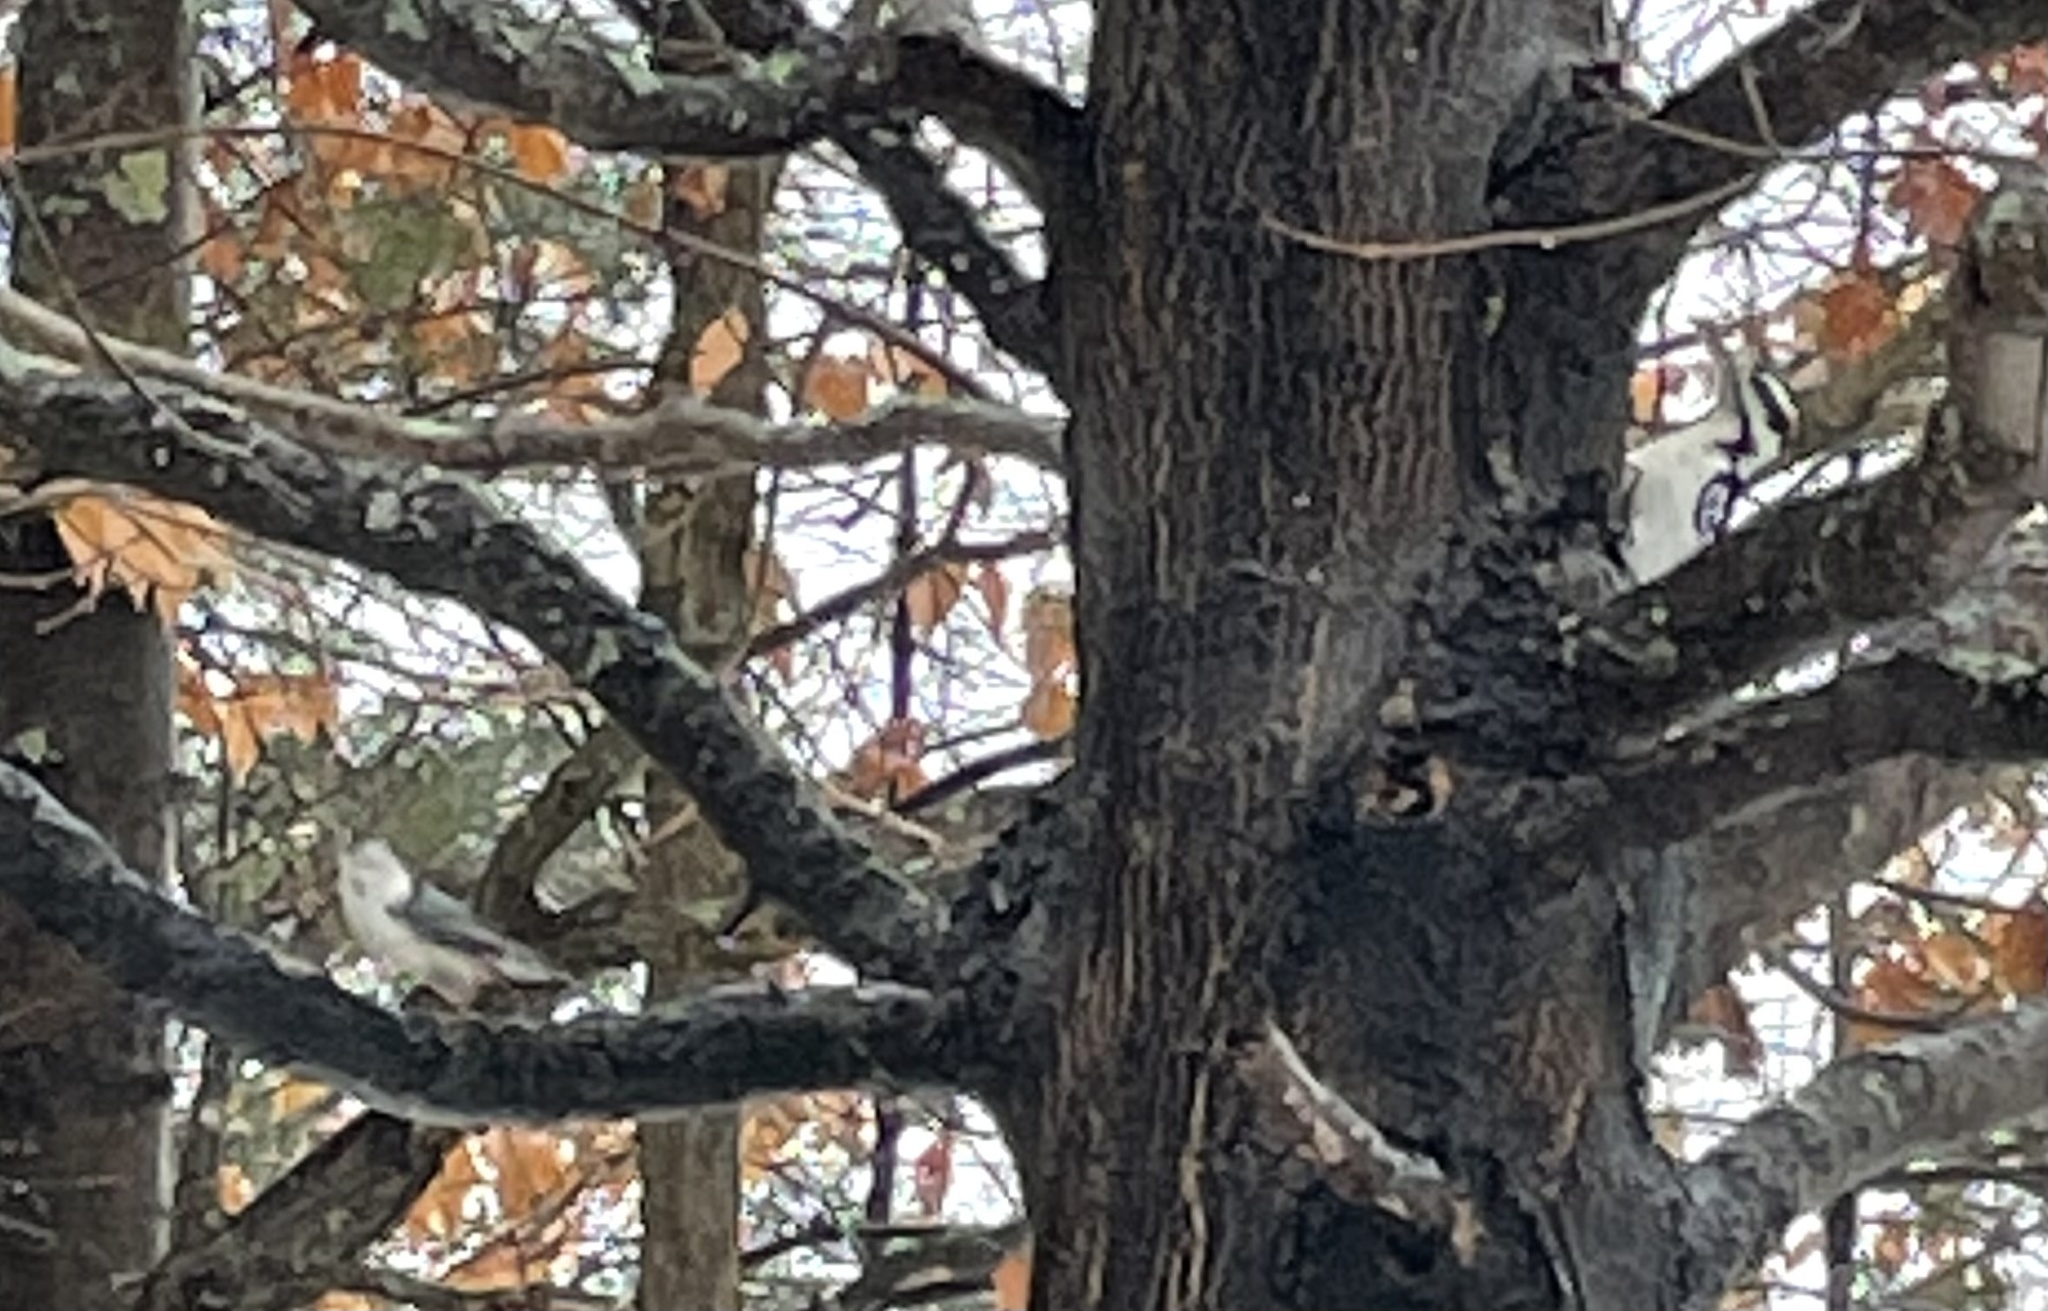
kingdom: Animalia
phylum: Chordata
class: Aves
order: Piciformes
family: Picidae
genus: Leuconotopicus
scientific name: Leuconotopicus villosus
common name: Hairy woodpecker
